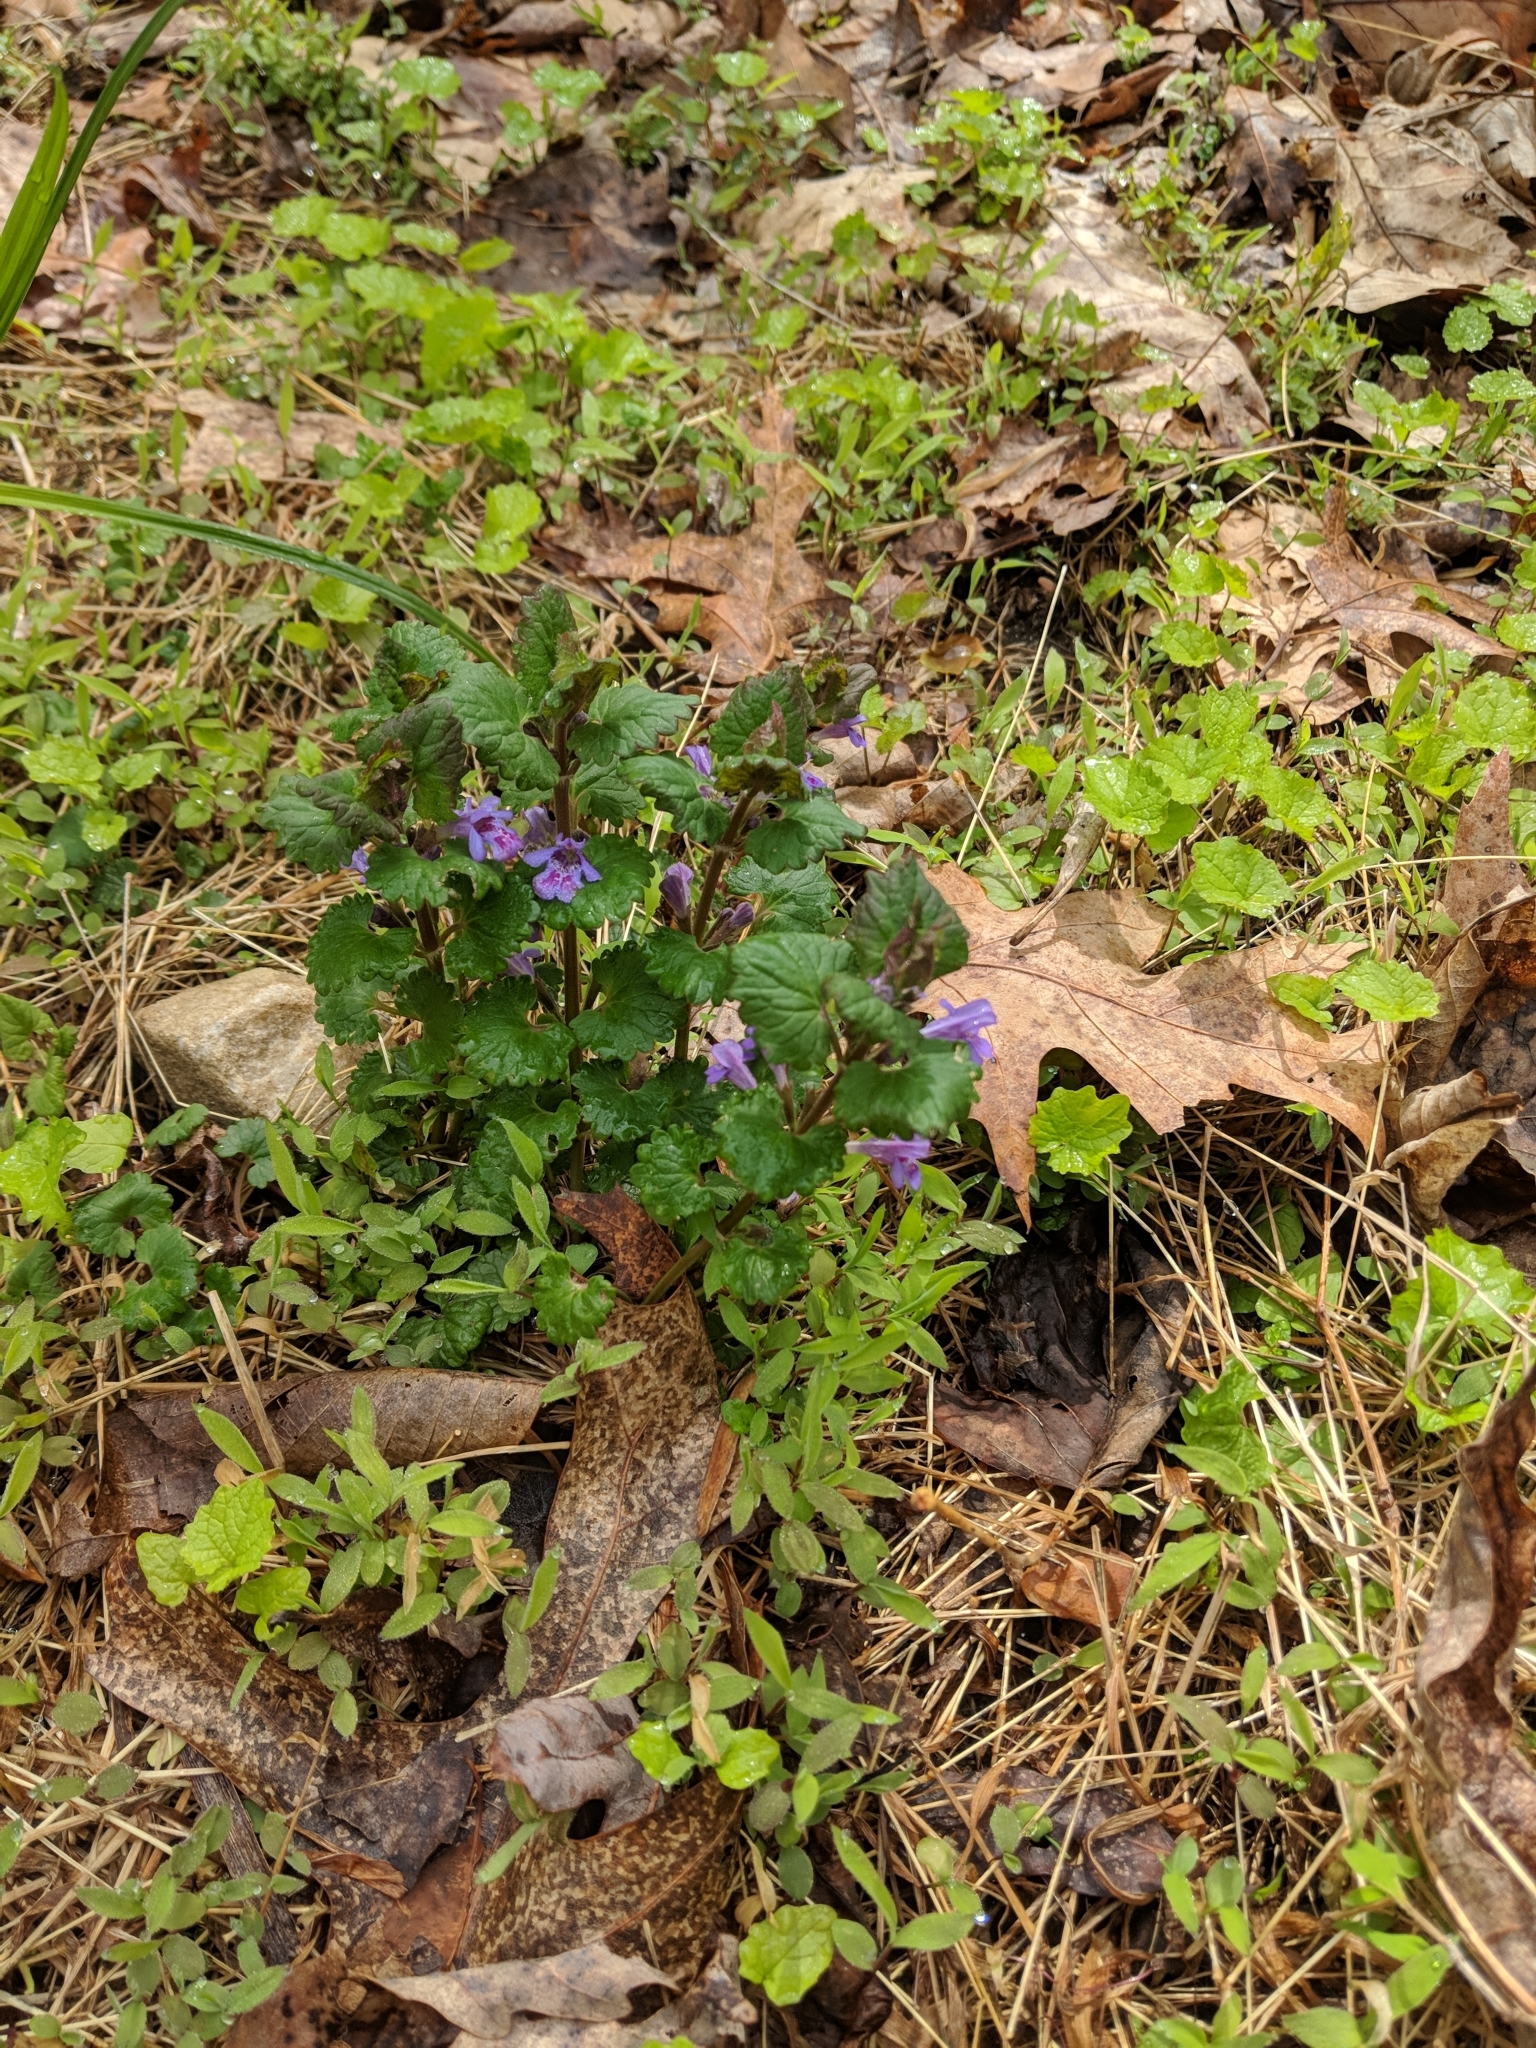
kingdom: Plantae
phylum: Tracheophyta
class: Magnoliopsida
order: Lamiales
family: Lamiaceae
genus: Glechoma
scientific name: Glechoma hederacea
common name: Ground ivy
